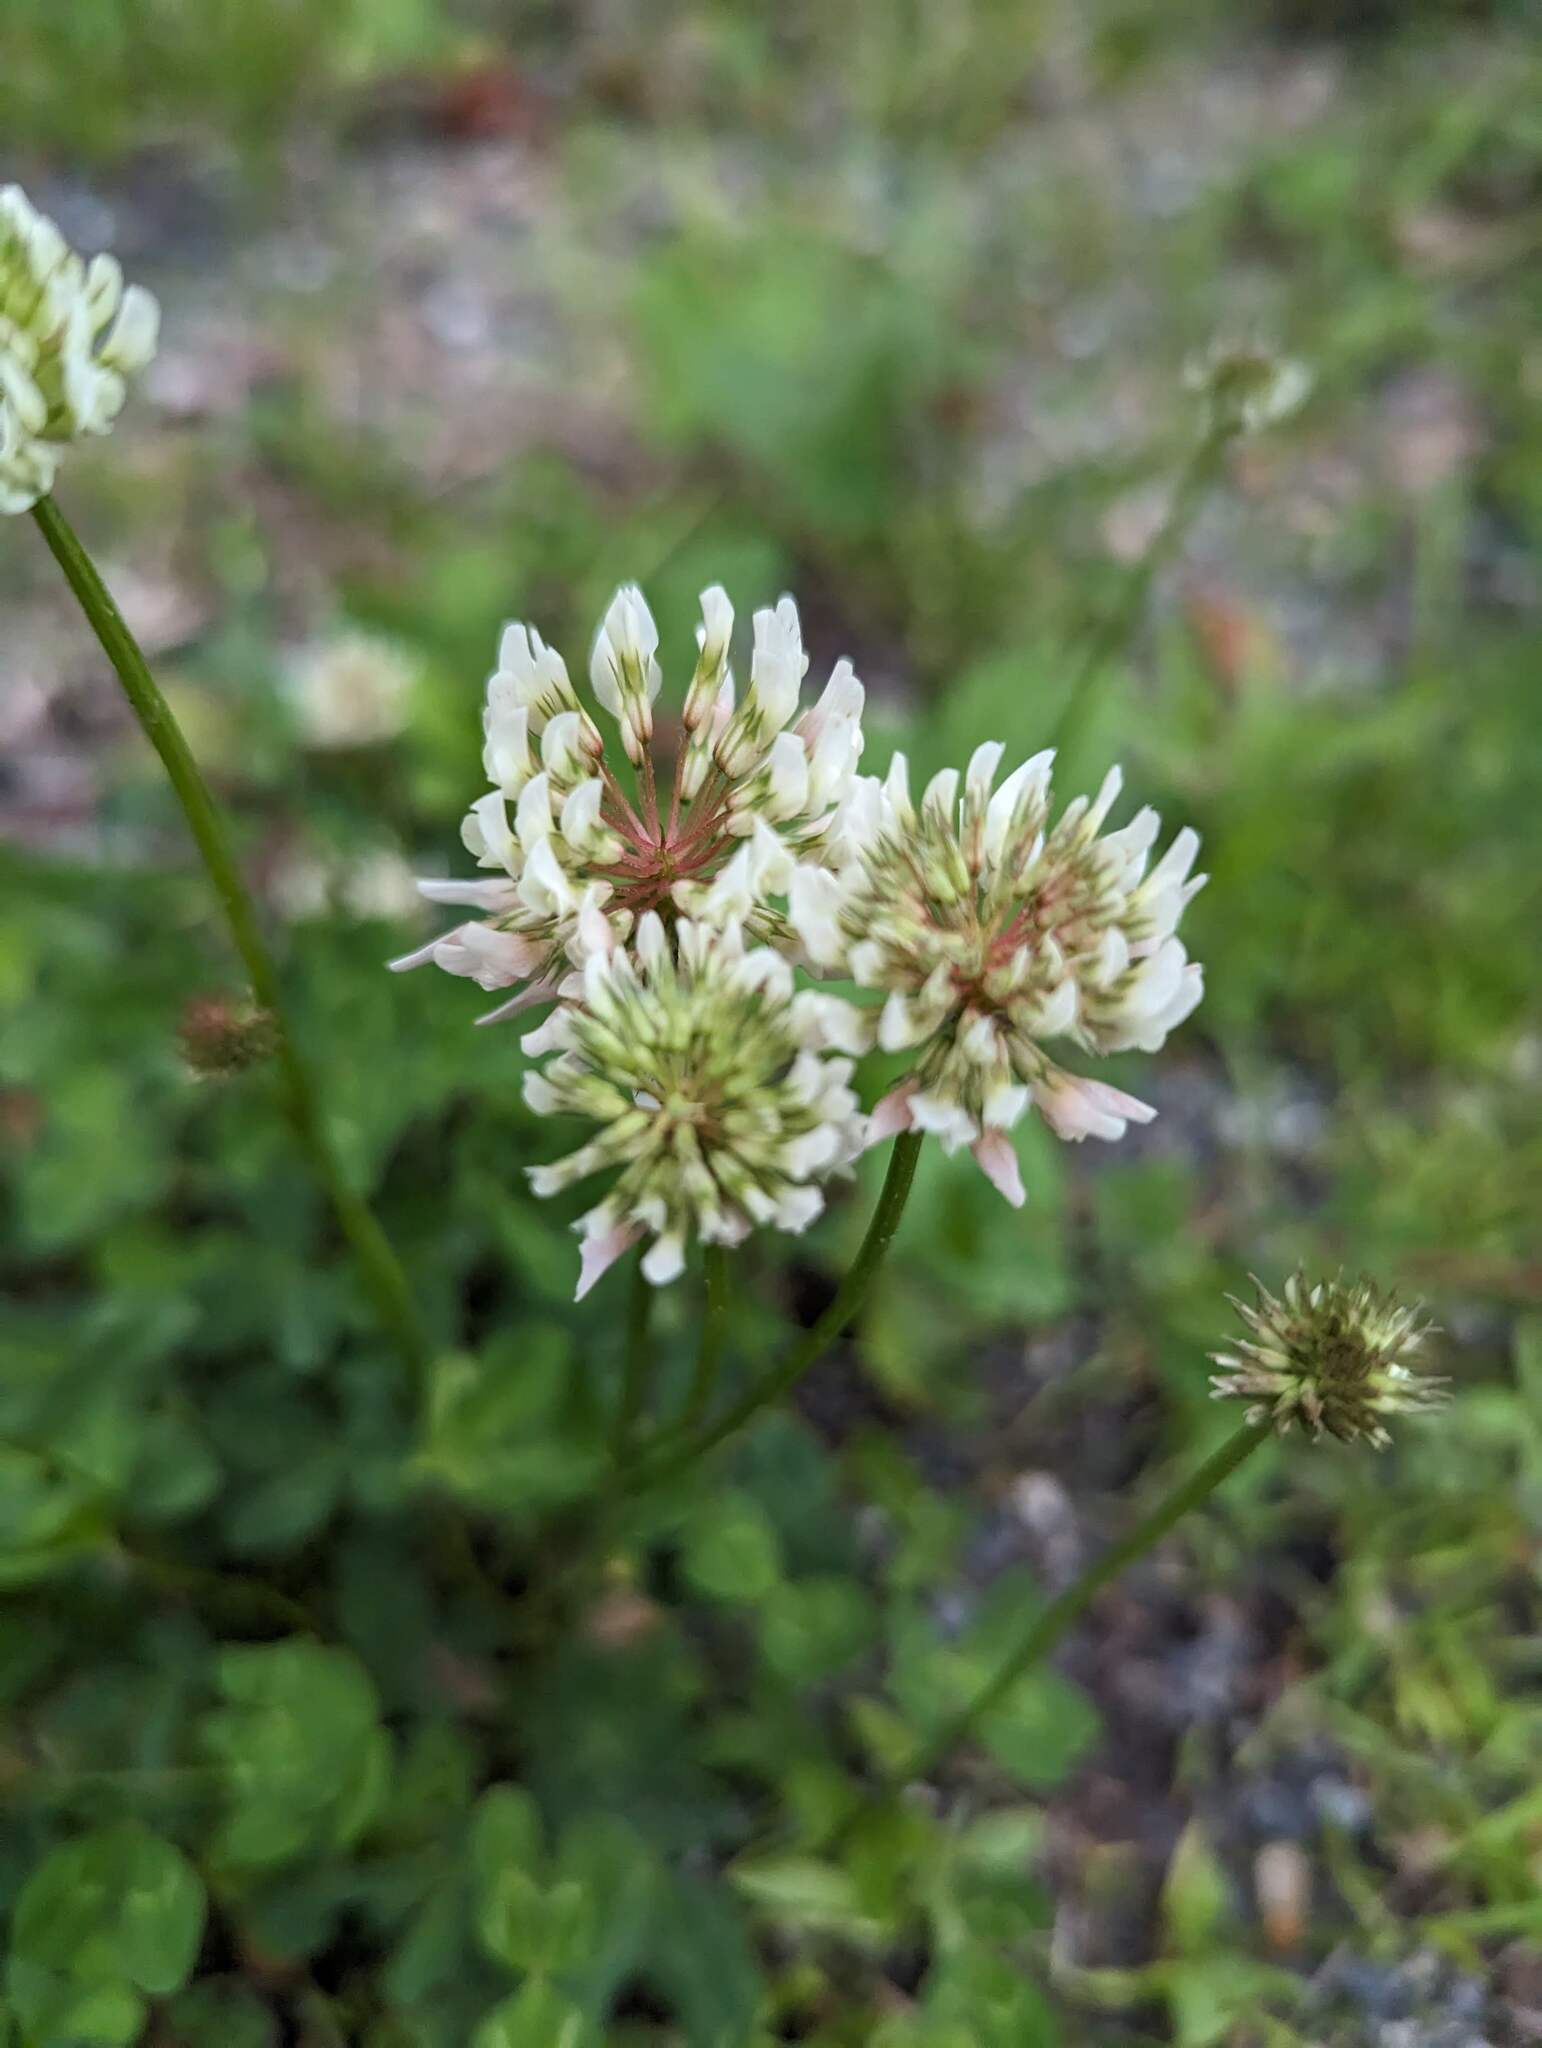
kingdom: Plantae
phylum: Tracheophyta
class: Magnoliopsida
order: Fabales
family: Fabaceae
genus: Trifolium
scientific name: Trifolium repens
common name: White clover
